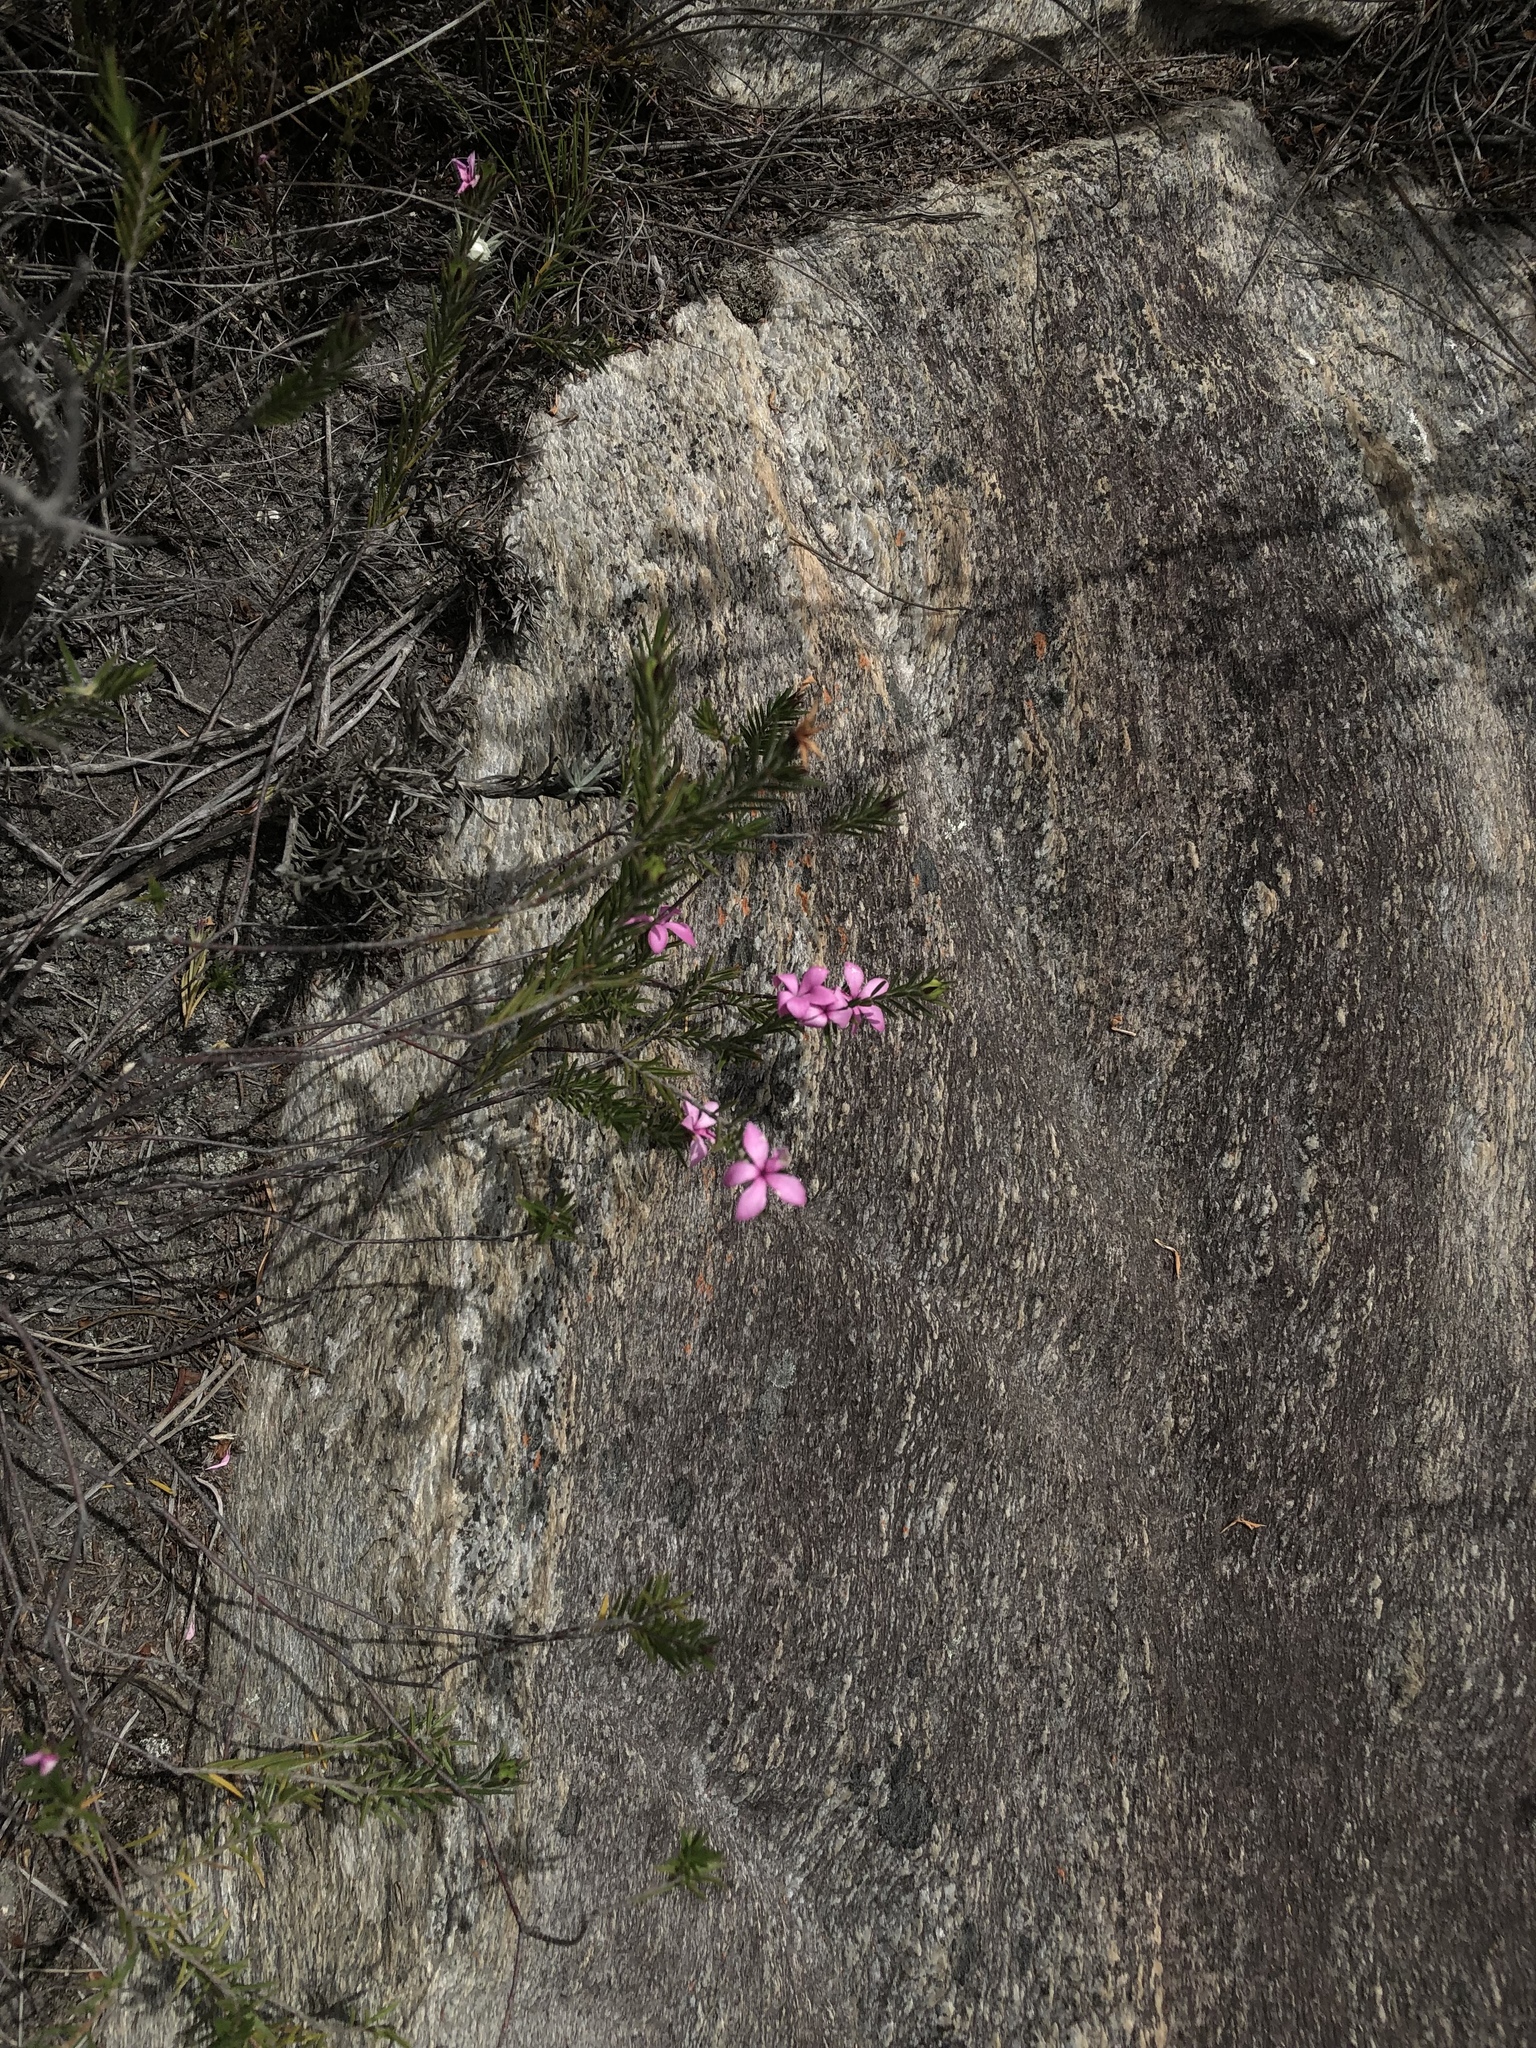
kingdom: Plantae
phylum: Tracheophyta
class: Magnoliopsida
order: Sapindales
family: Rutaceae
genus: Acmadenia
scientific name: Acmadenia trigona
